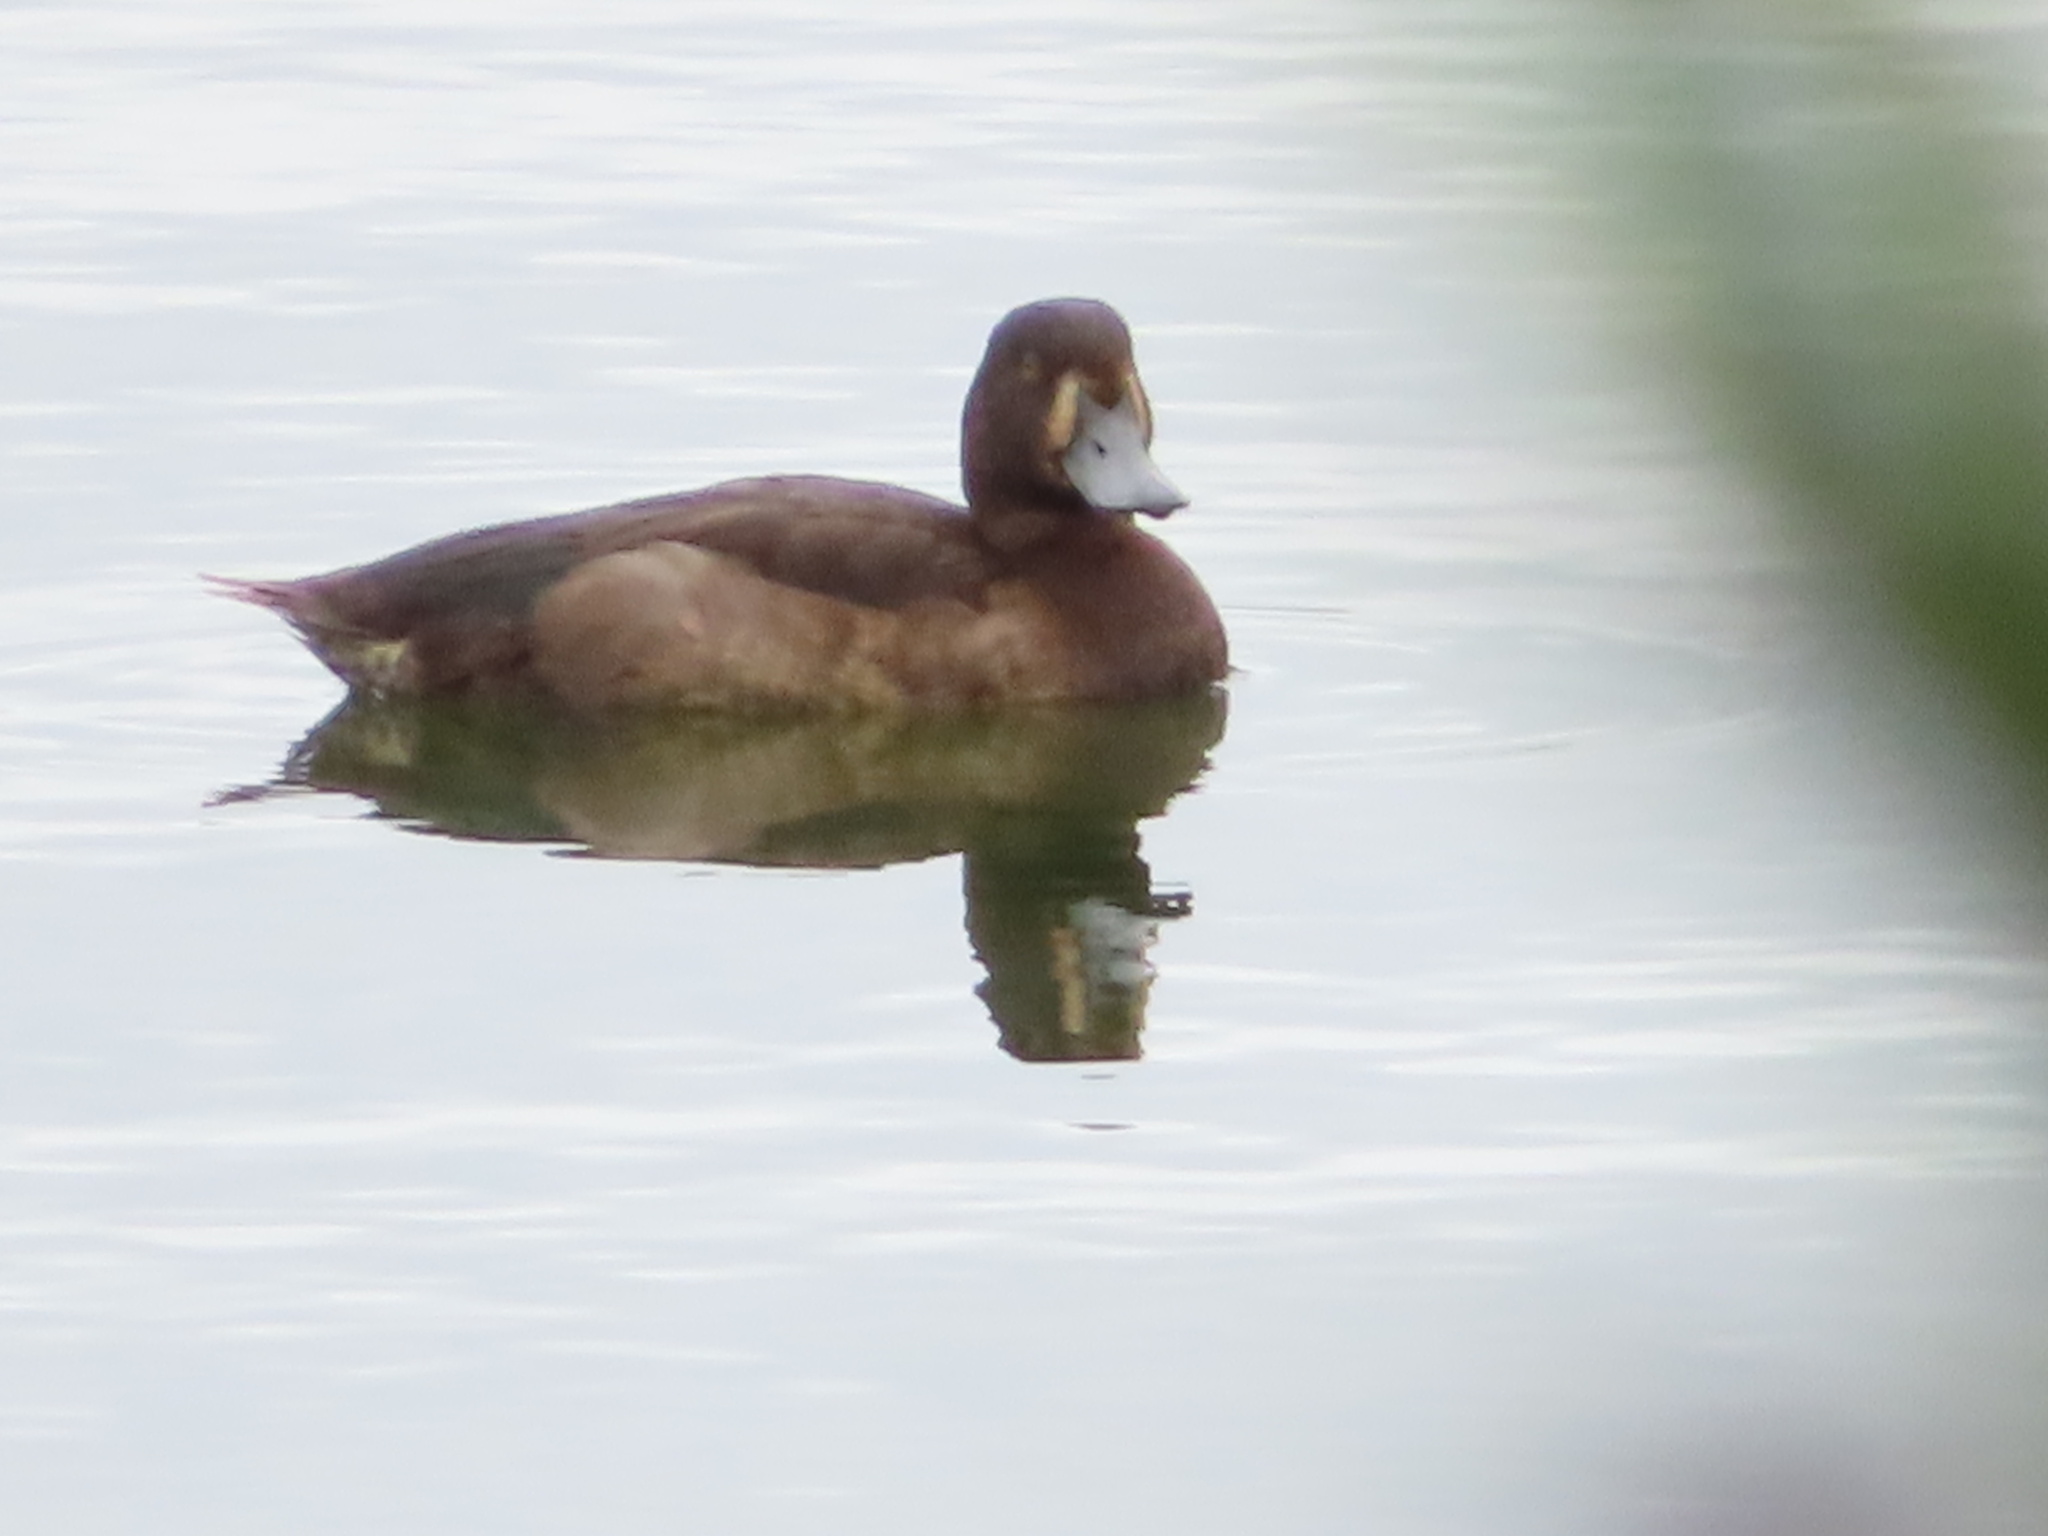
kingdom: Animalia
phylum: Chordata
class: Aves
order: Anseriformes
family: Anatidae
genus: Aythya
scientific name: Aythya fuligula
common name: Tufted duck
